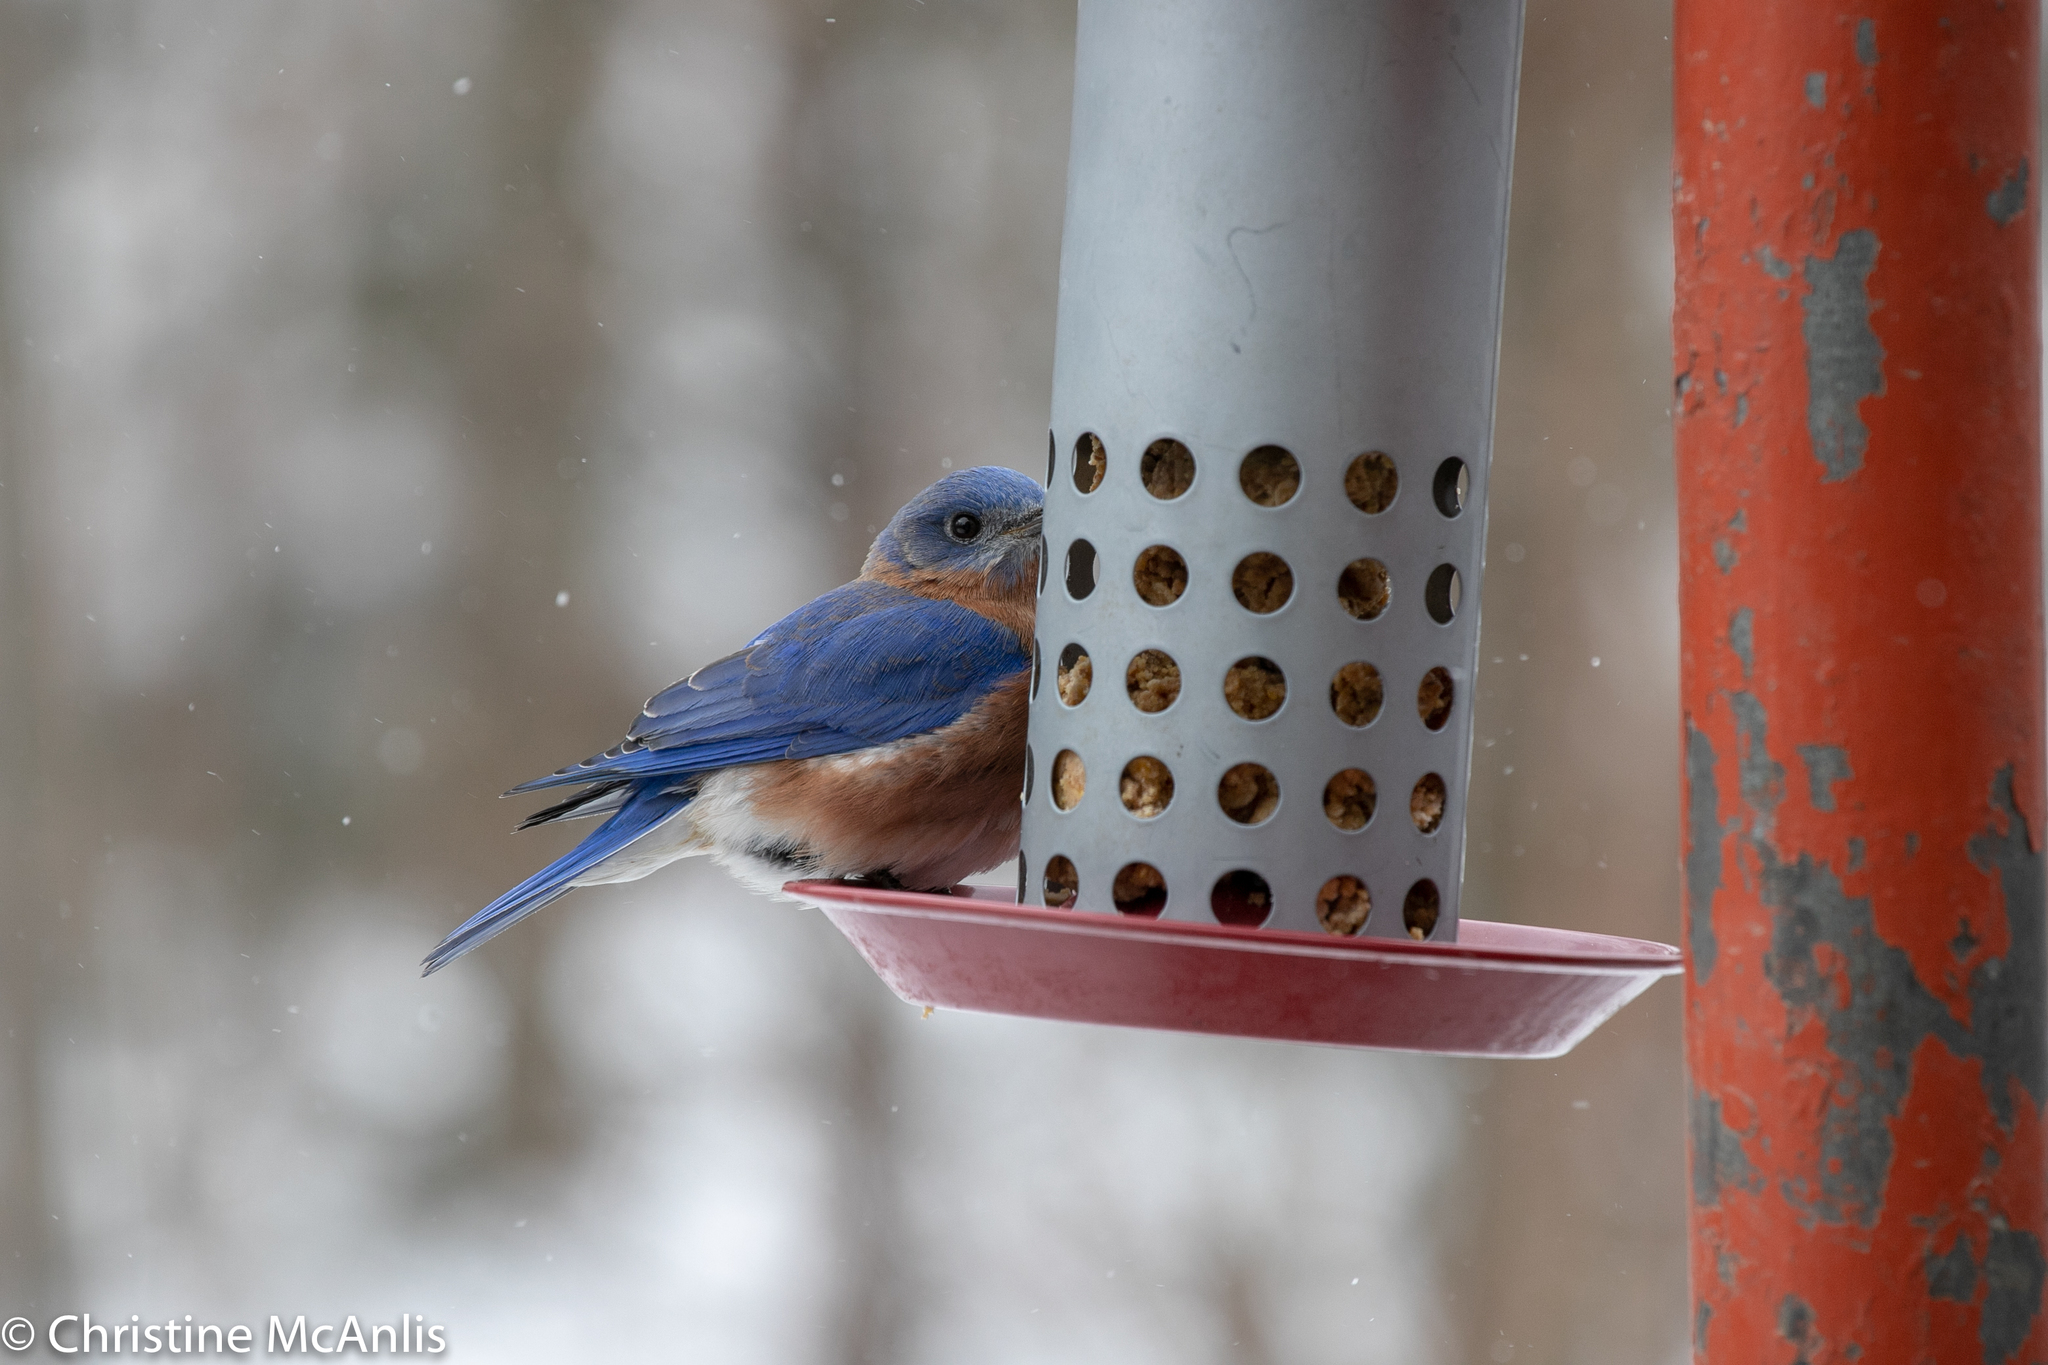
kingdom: Animalia
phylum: Chordata
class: Aves
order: Passeriformes
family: Turdidae
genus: Sialia
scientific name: Sialia sialis
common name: Eastern bluebird
